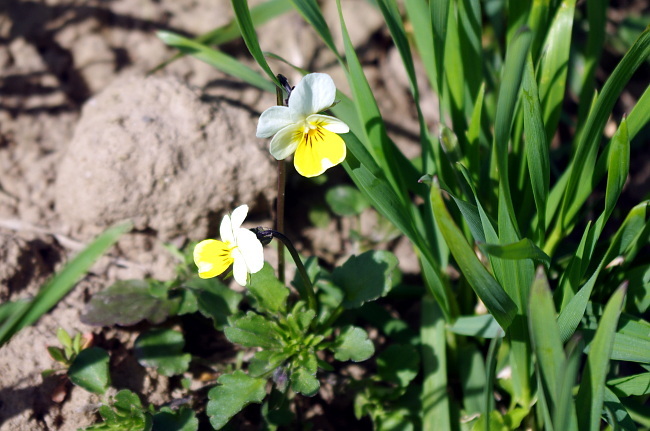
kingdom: Plantae
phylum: Tracheophyta
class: Magnoliopsida
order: Malpighiales
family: Violaceae
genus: Viola
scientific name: Viola arvensis
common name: Field pansy
